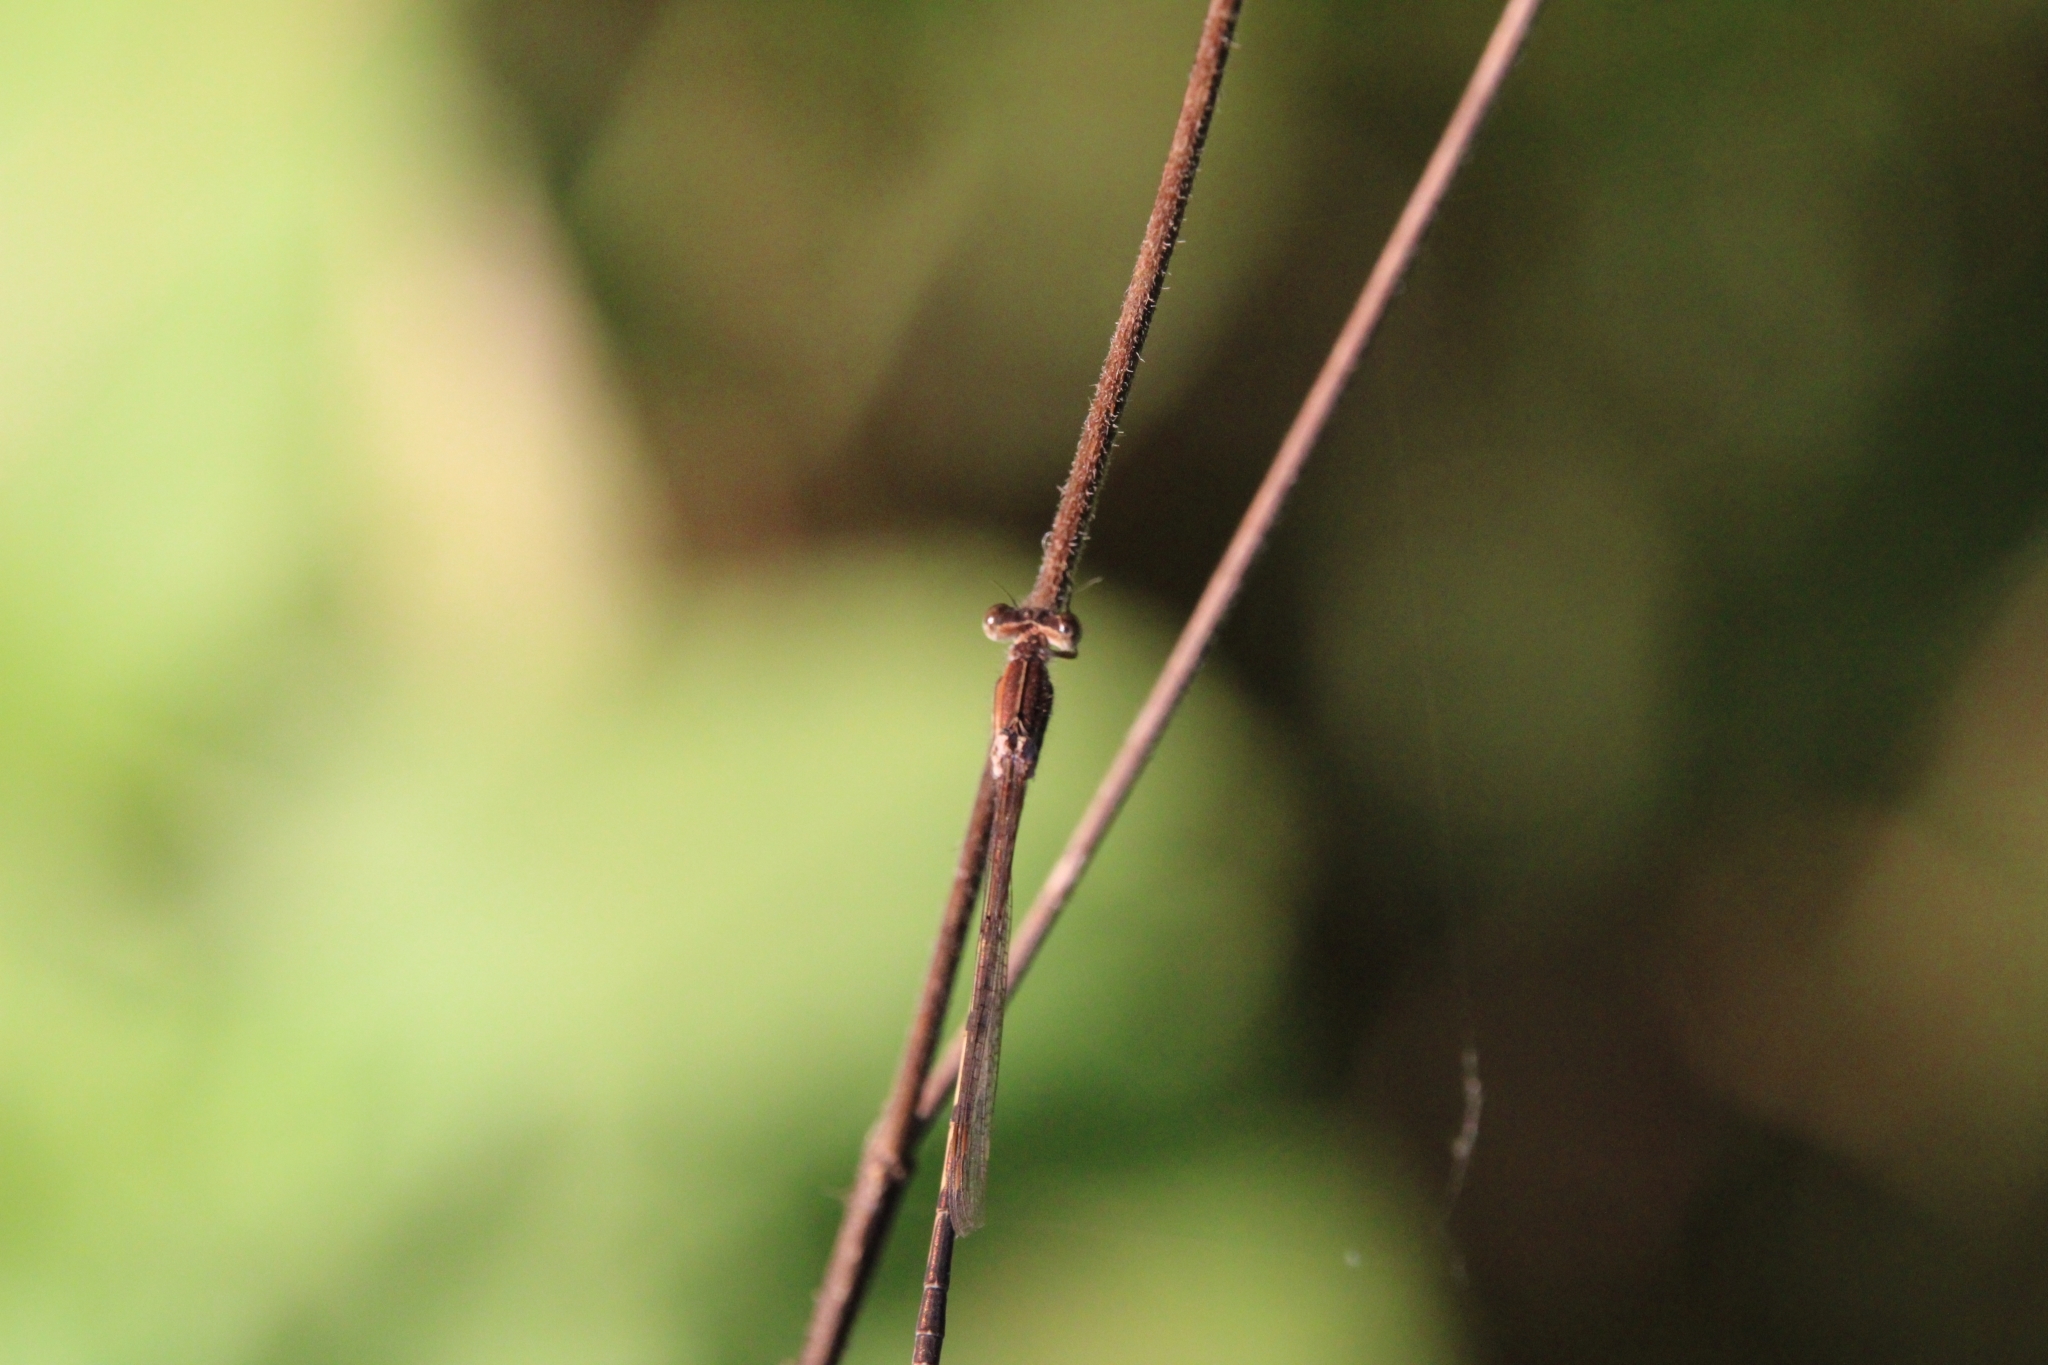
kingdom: Animalia
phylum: Arthropoda
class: Insecta
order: Odonata
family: Lestidae
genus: Sympecma
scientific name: Sympecma fusca
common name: Common winter damsel
